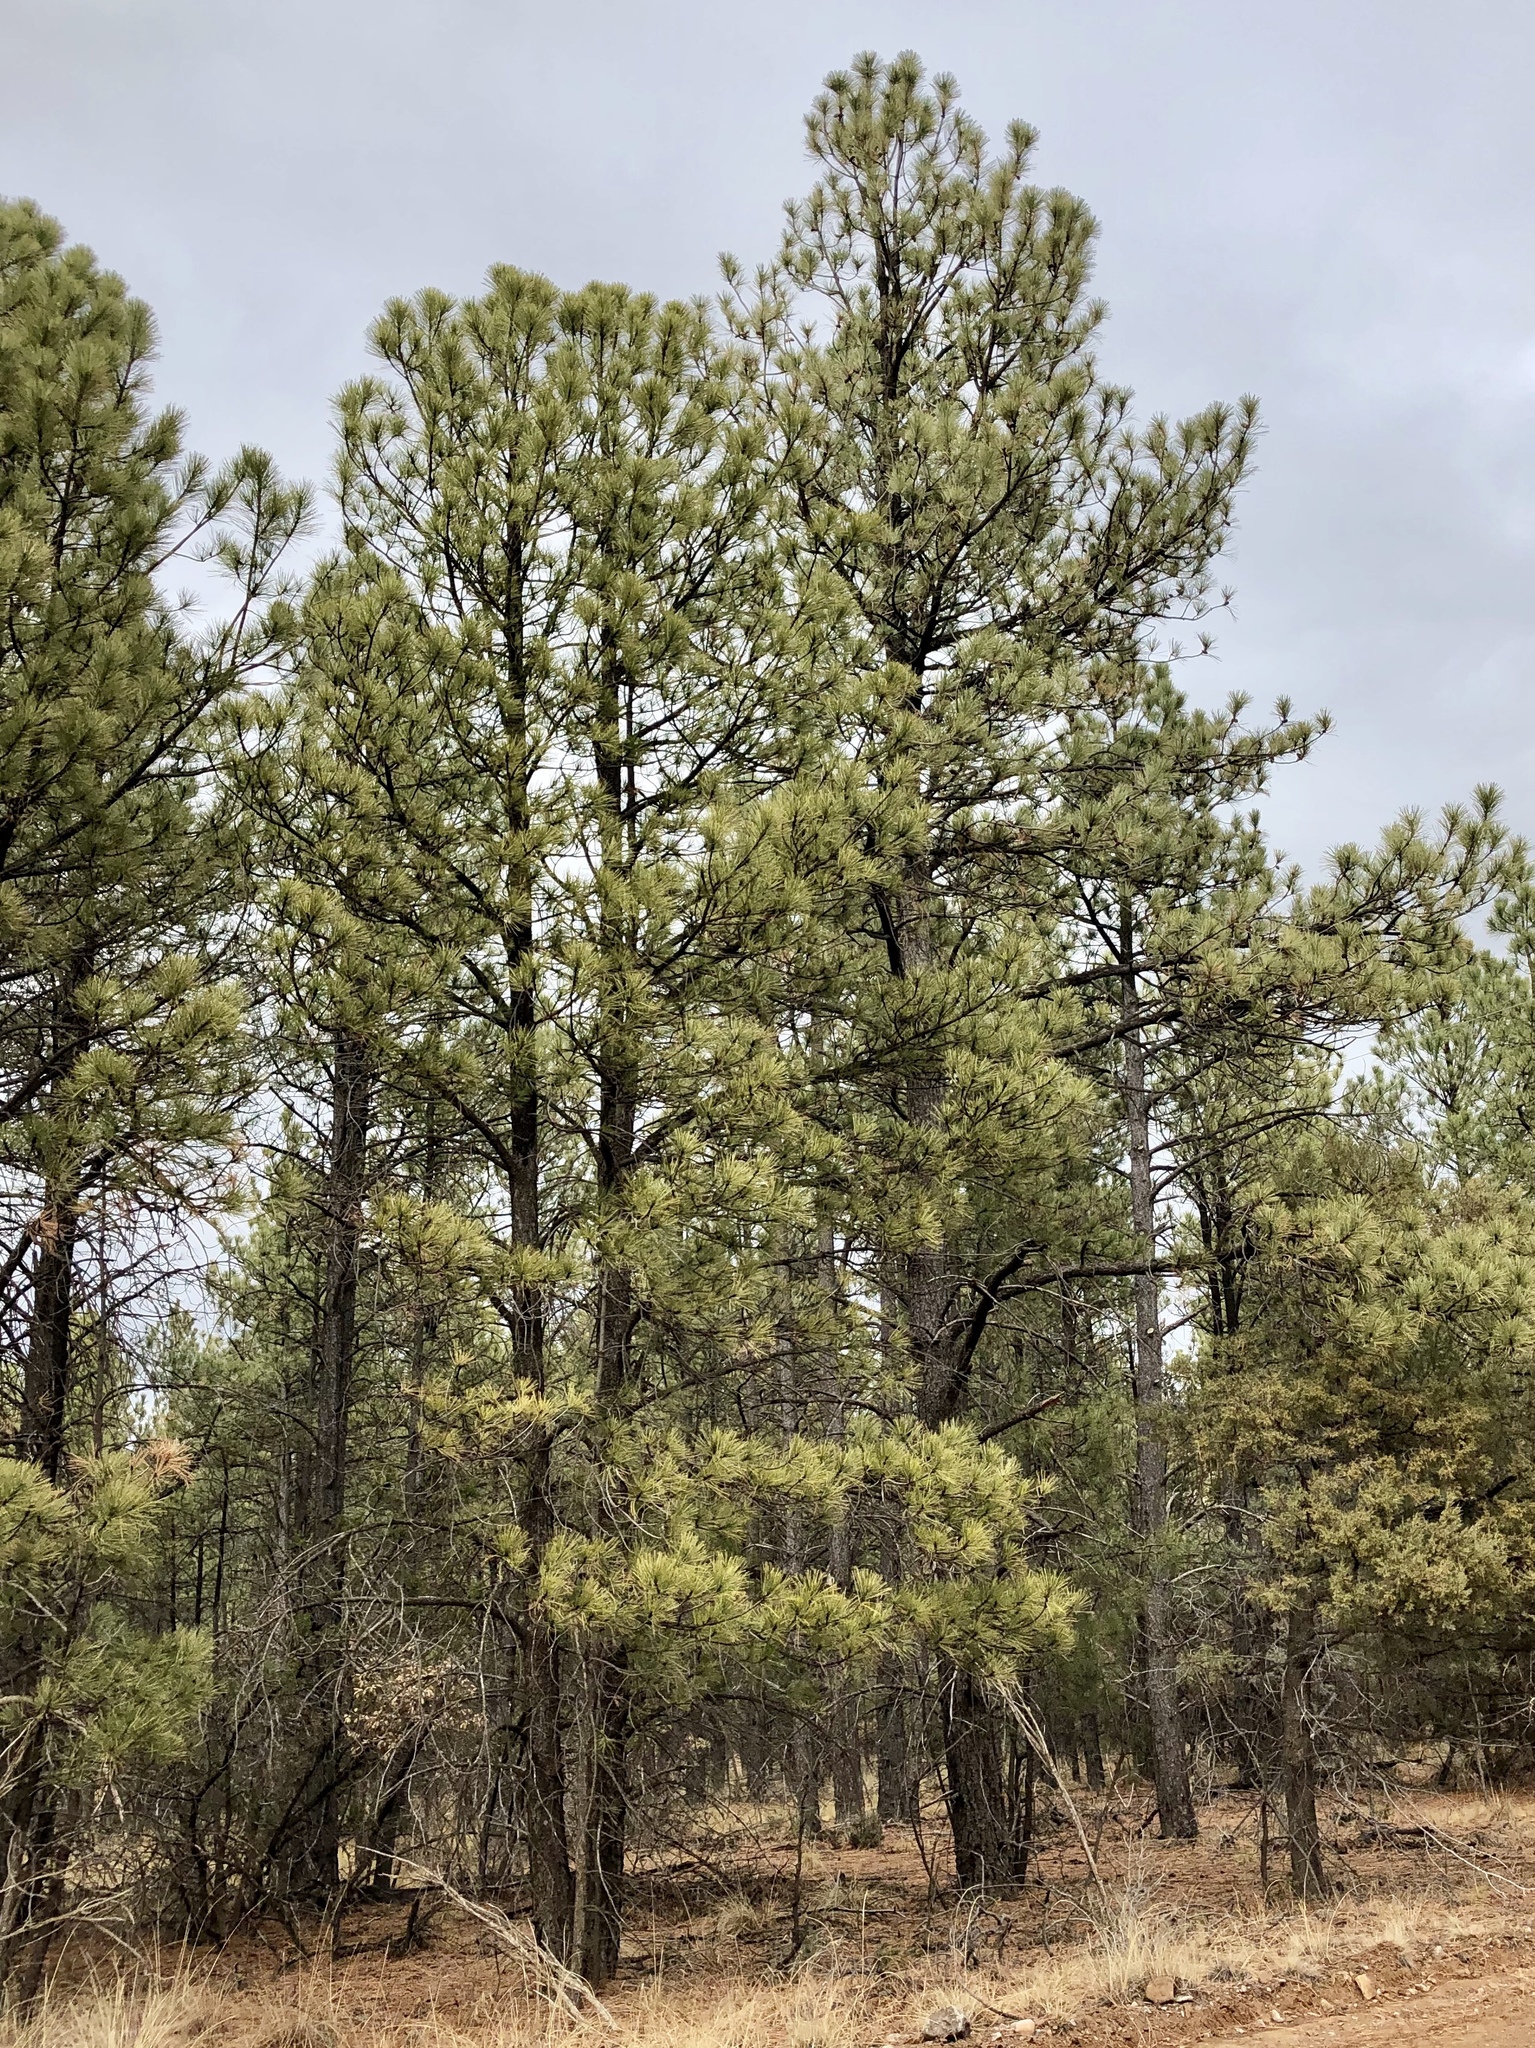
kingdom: Plantae
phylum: Tracheophyta
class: Pinopsida
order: Pinales
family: Pinaceae
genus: Pinus
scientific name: Pinus ponderosa
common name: Western yellow-pine
